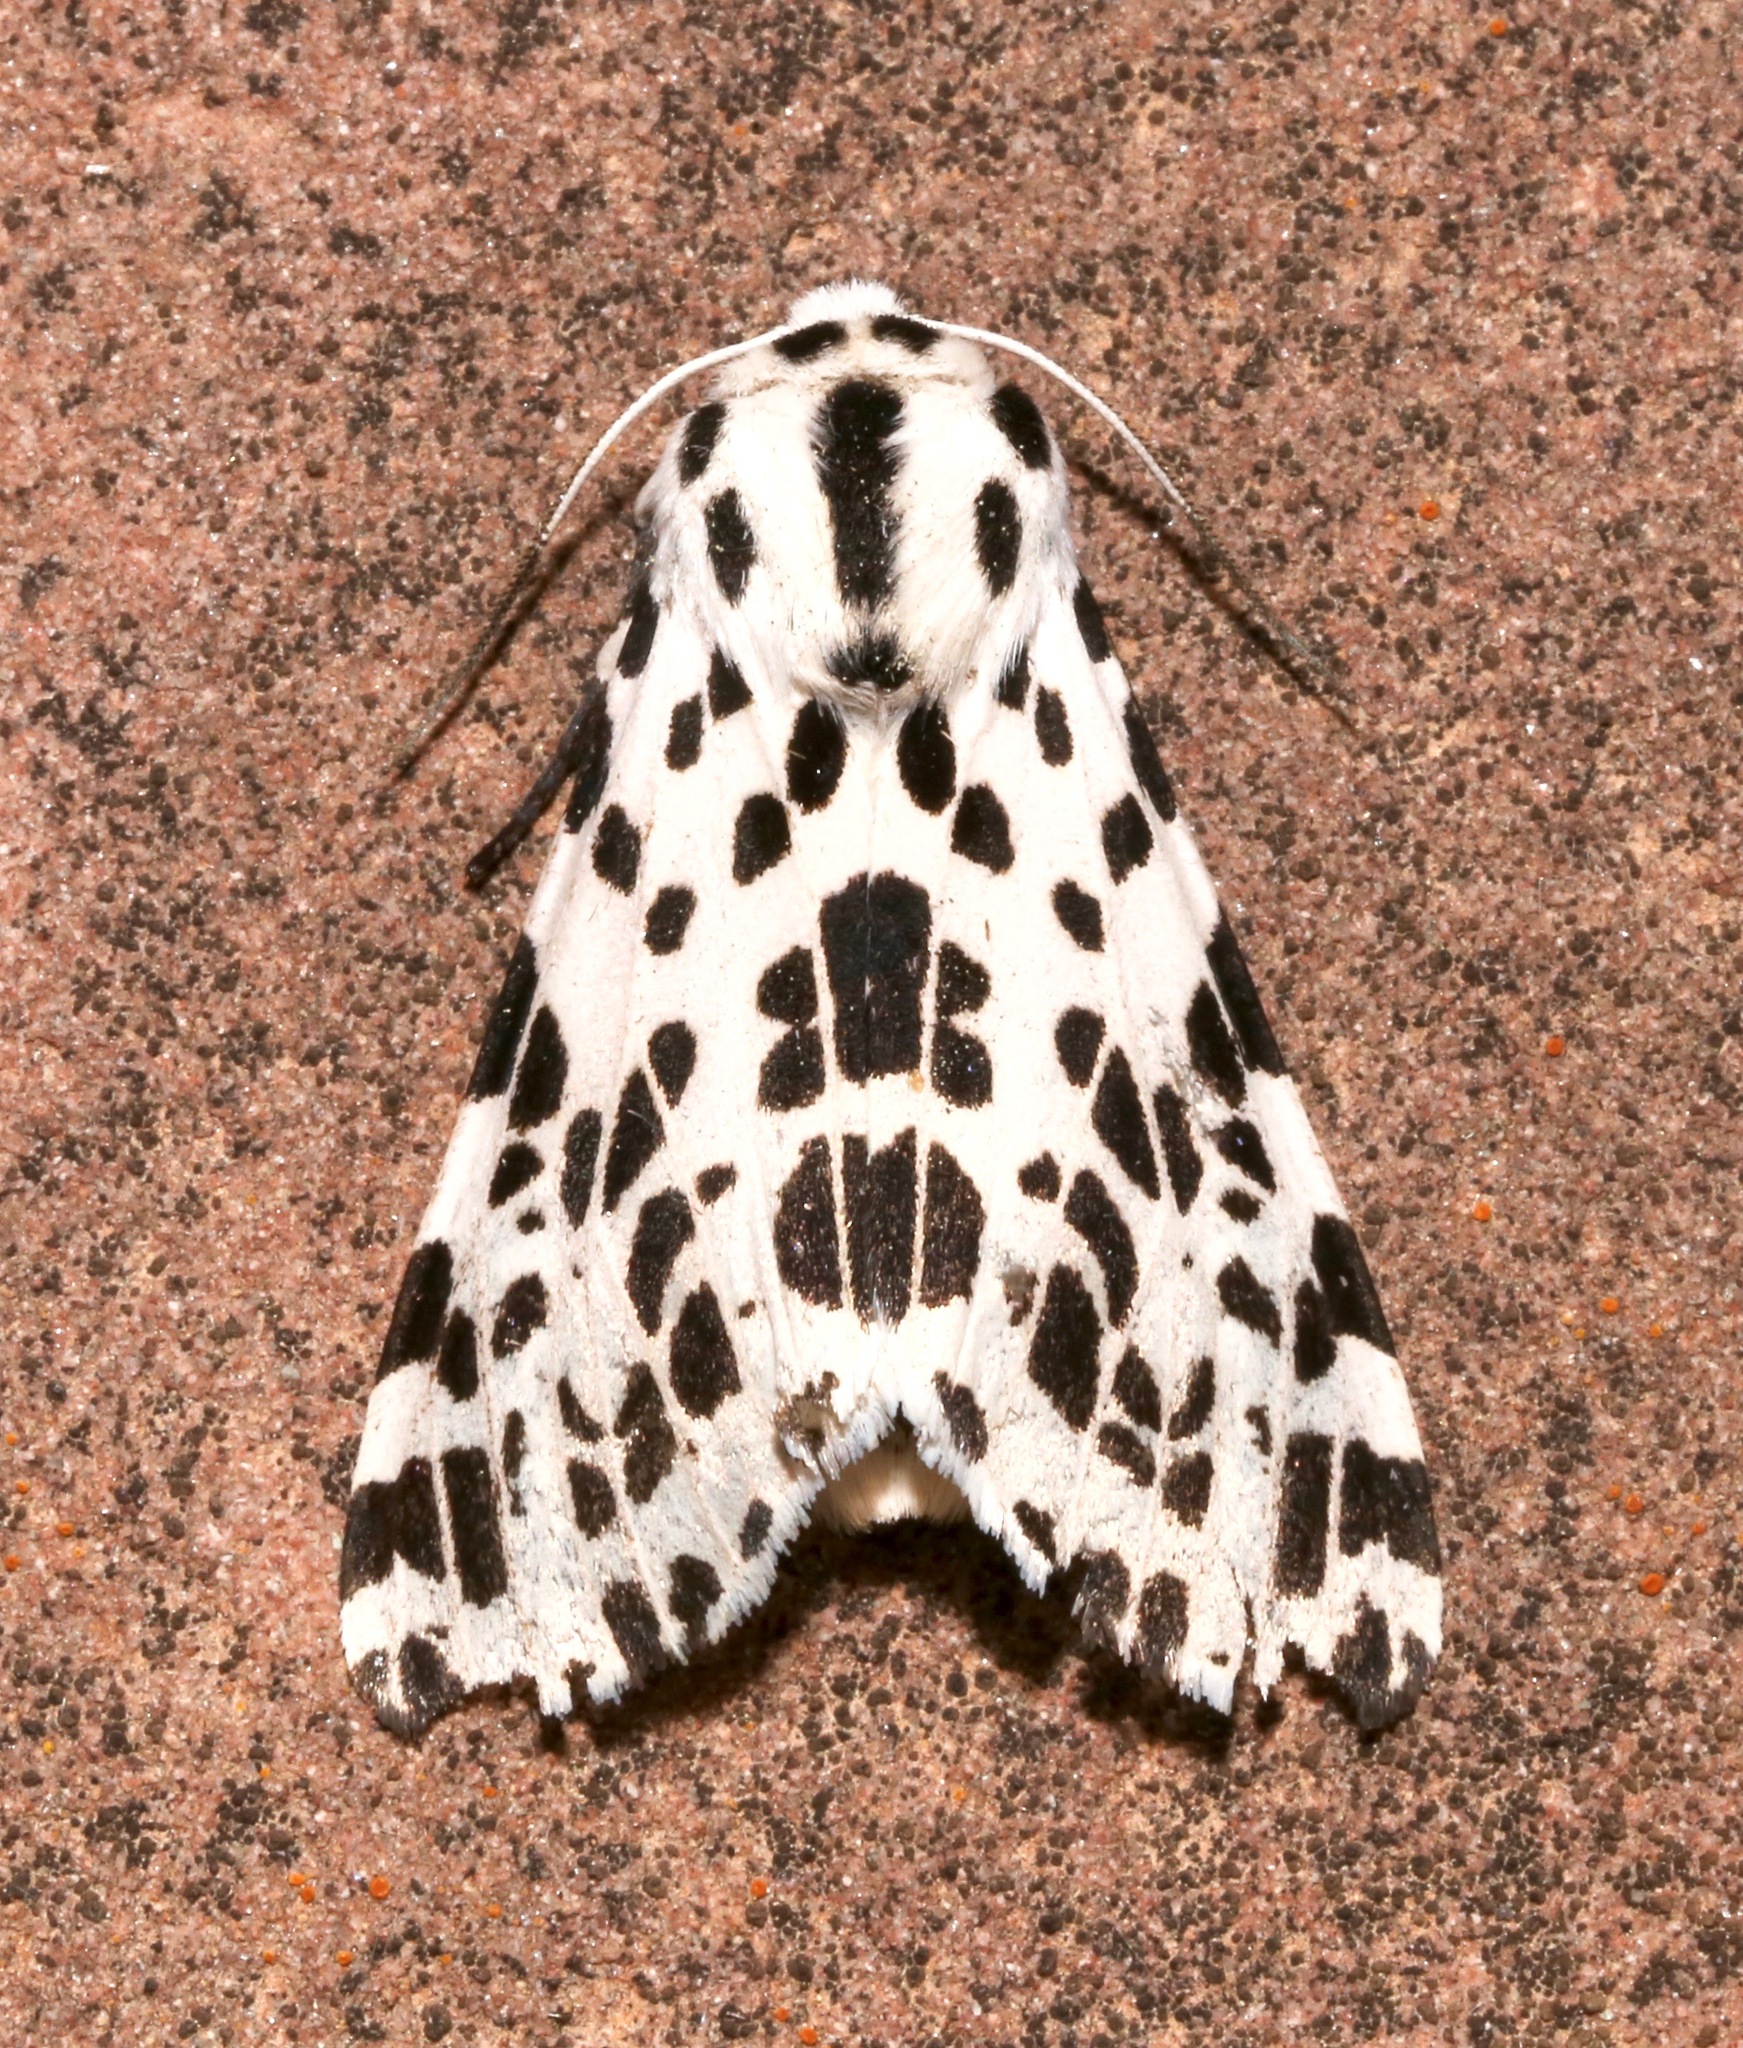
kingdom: Animalia
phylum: Arthropoda
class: Insecta
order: Lepidoptera
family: Erebidae
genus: Hypercompe
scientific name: Hypercompe permaculata
